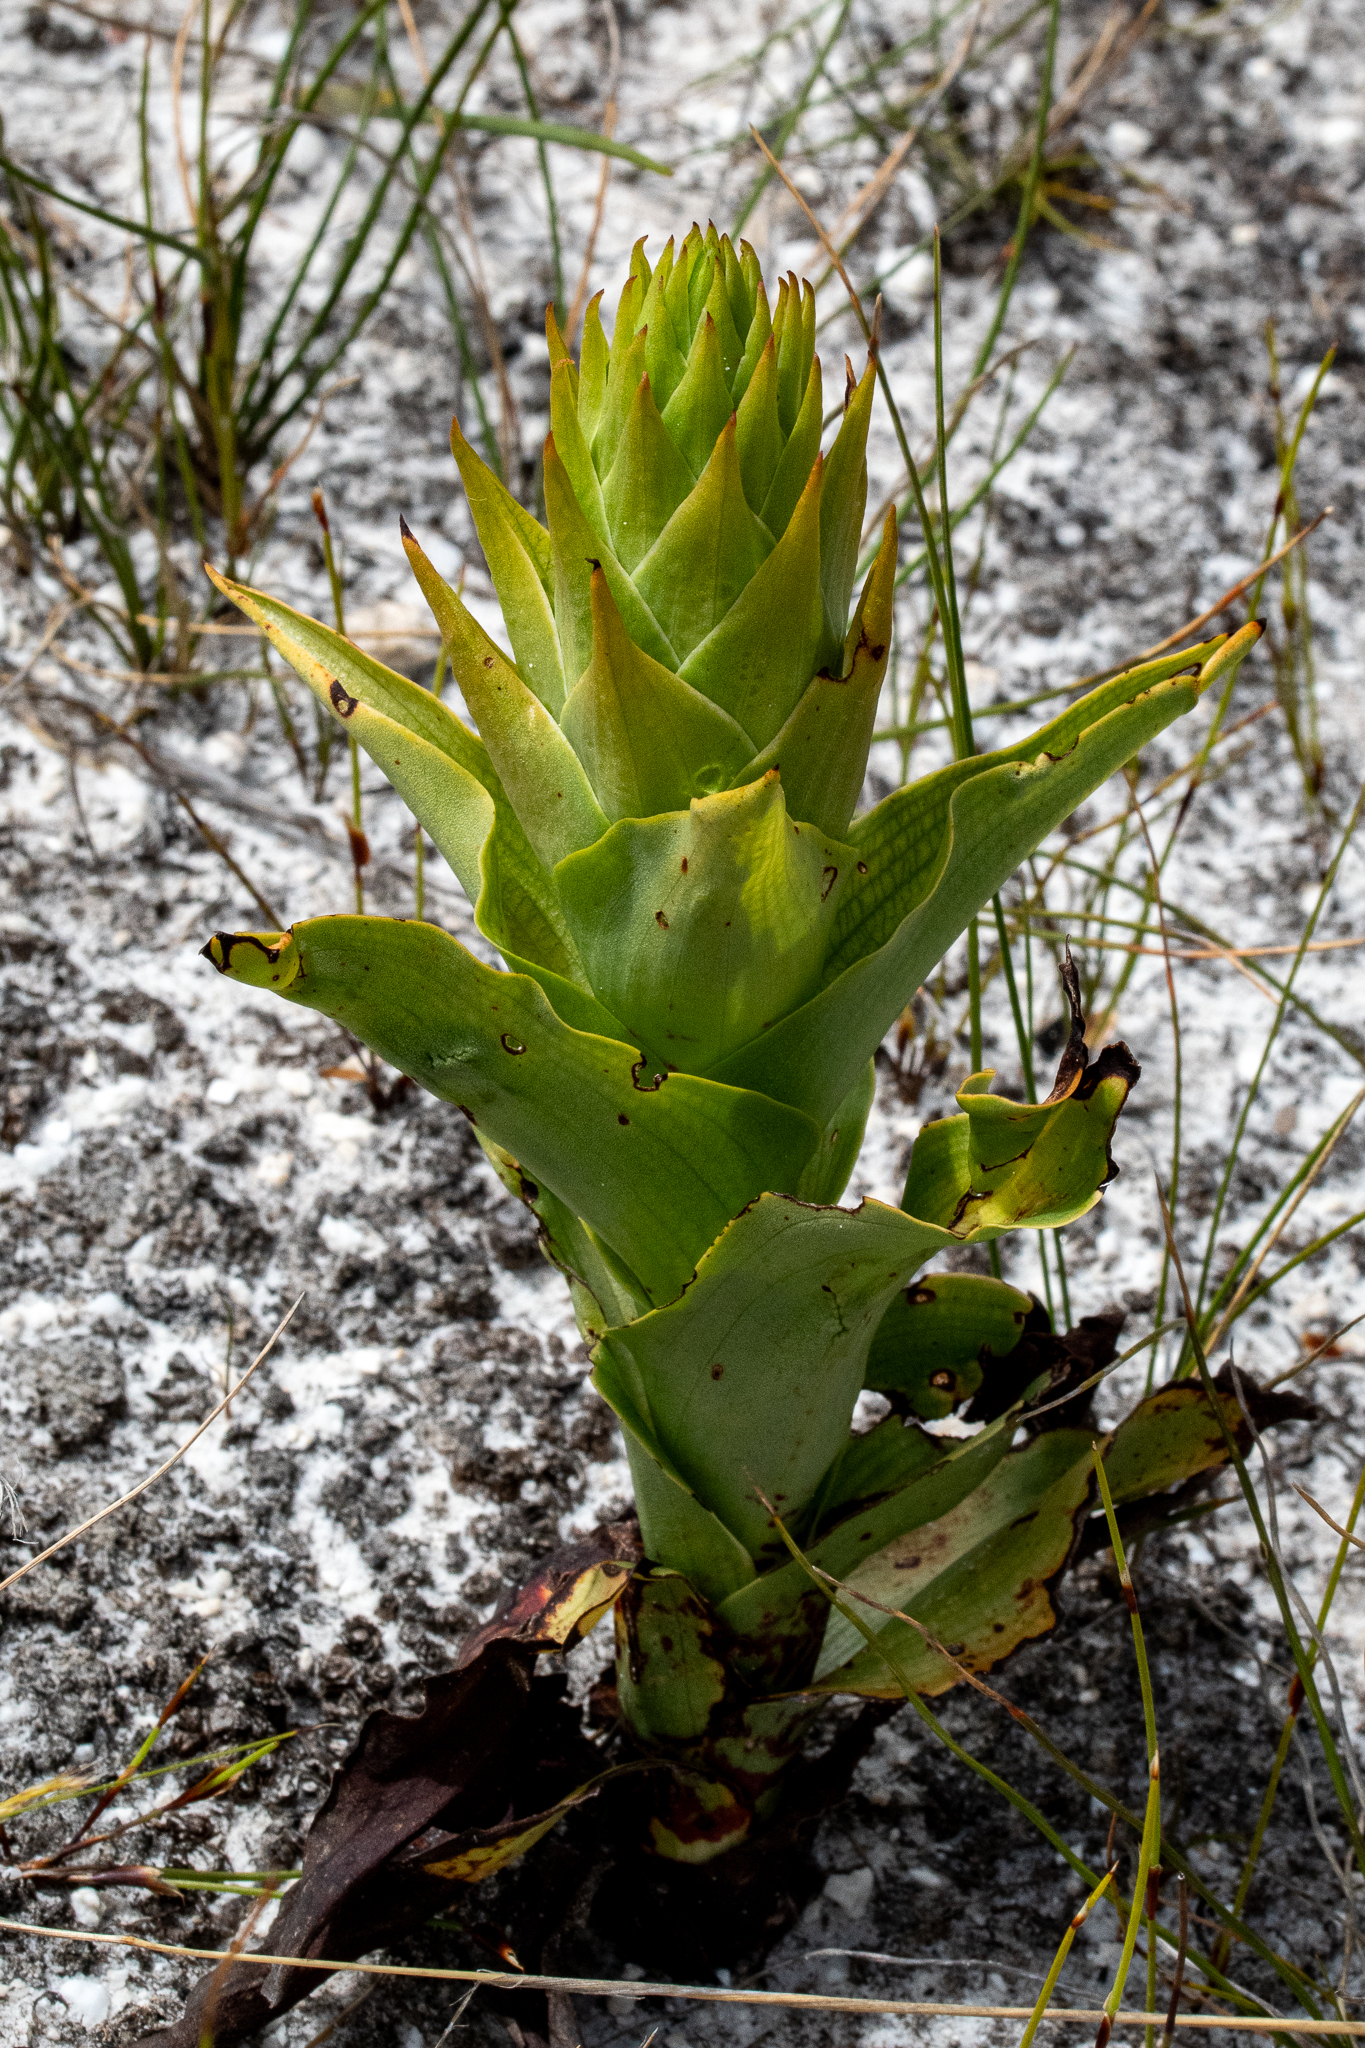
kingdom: Plantae
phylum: Tracheophyta
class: Liliopsida
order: Asparagales
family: Orchidaceae
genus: Disa
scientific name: Disa cornuta
